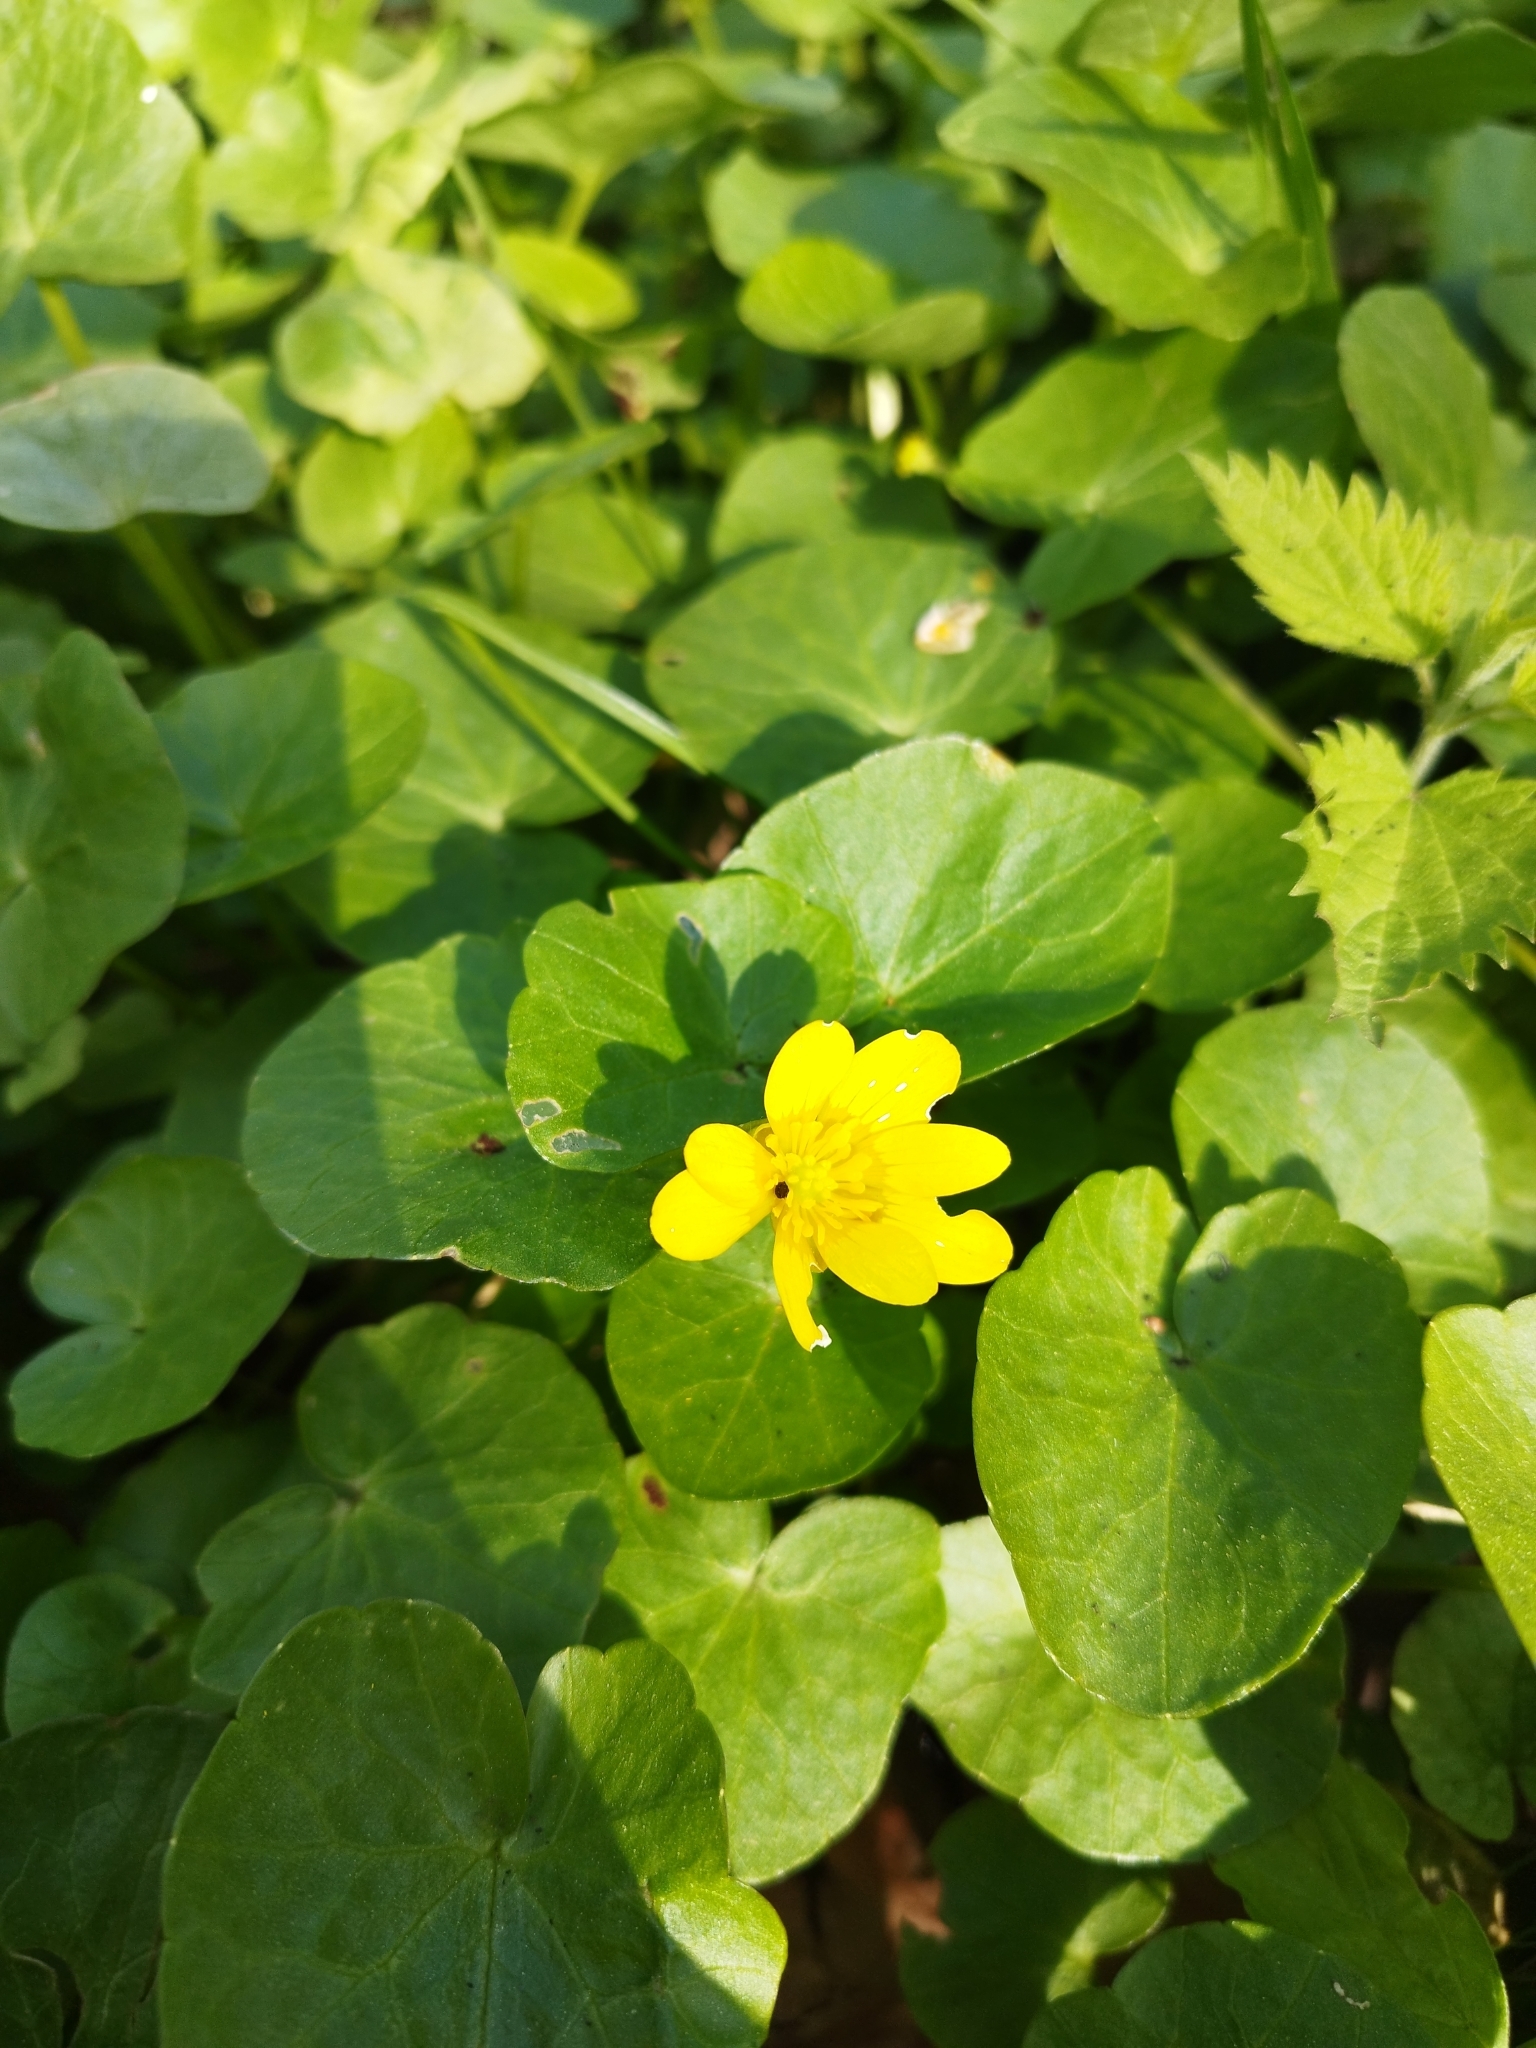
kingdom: Plantae
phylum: Tracheophyta
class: Magnoliopsida
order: Ranunculales
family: Ranunculaceae
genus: Ficaria
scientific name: Ficaria verna
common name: Lesser celandine
